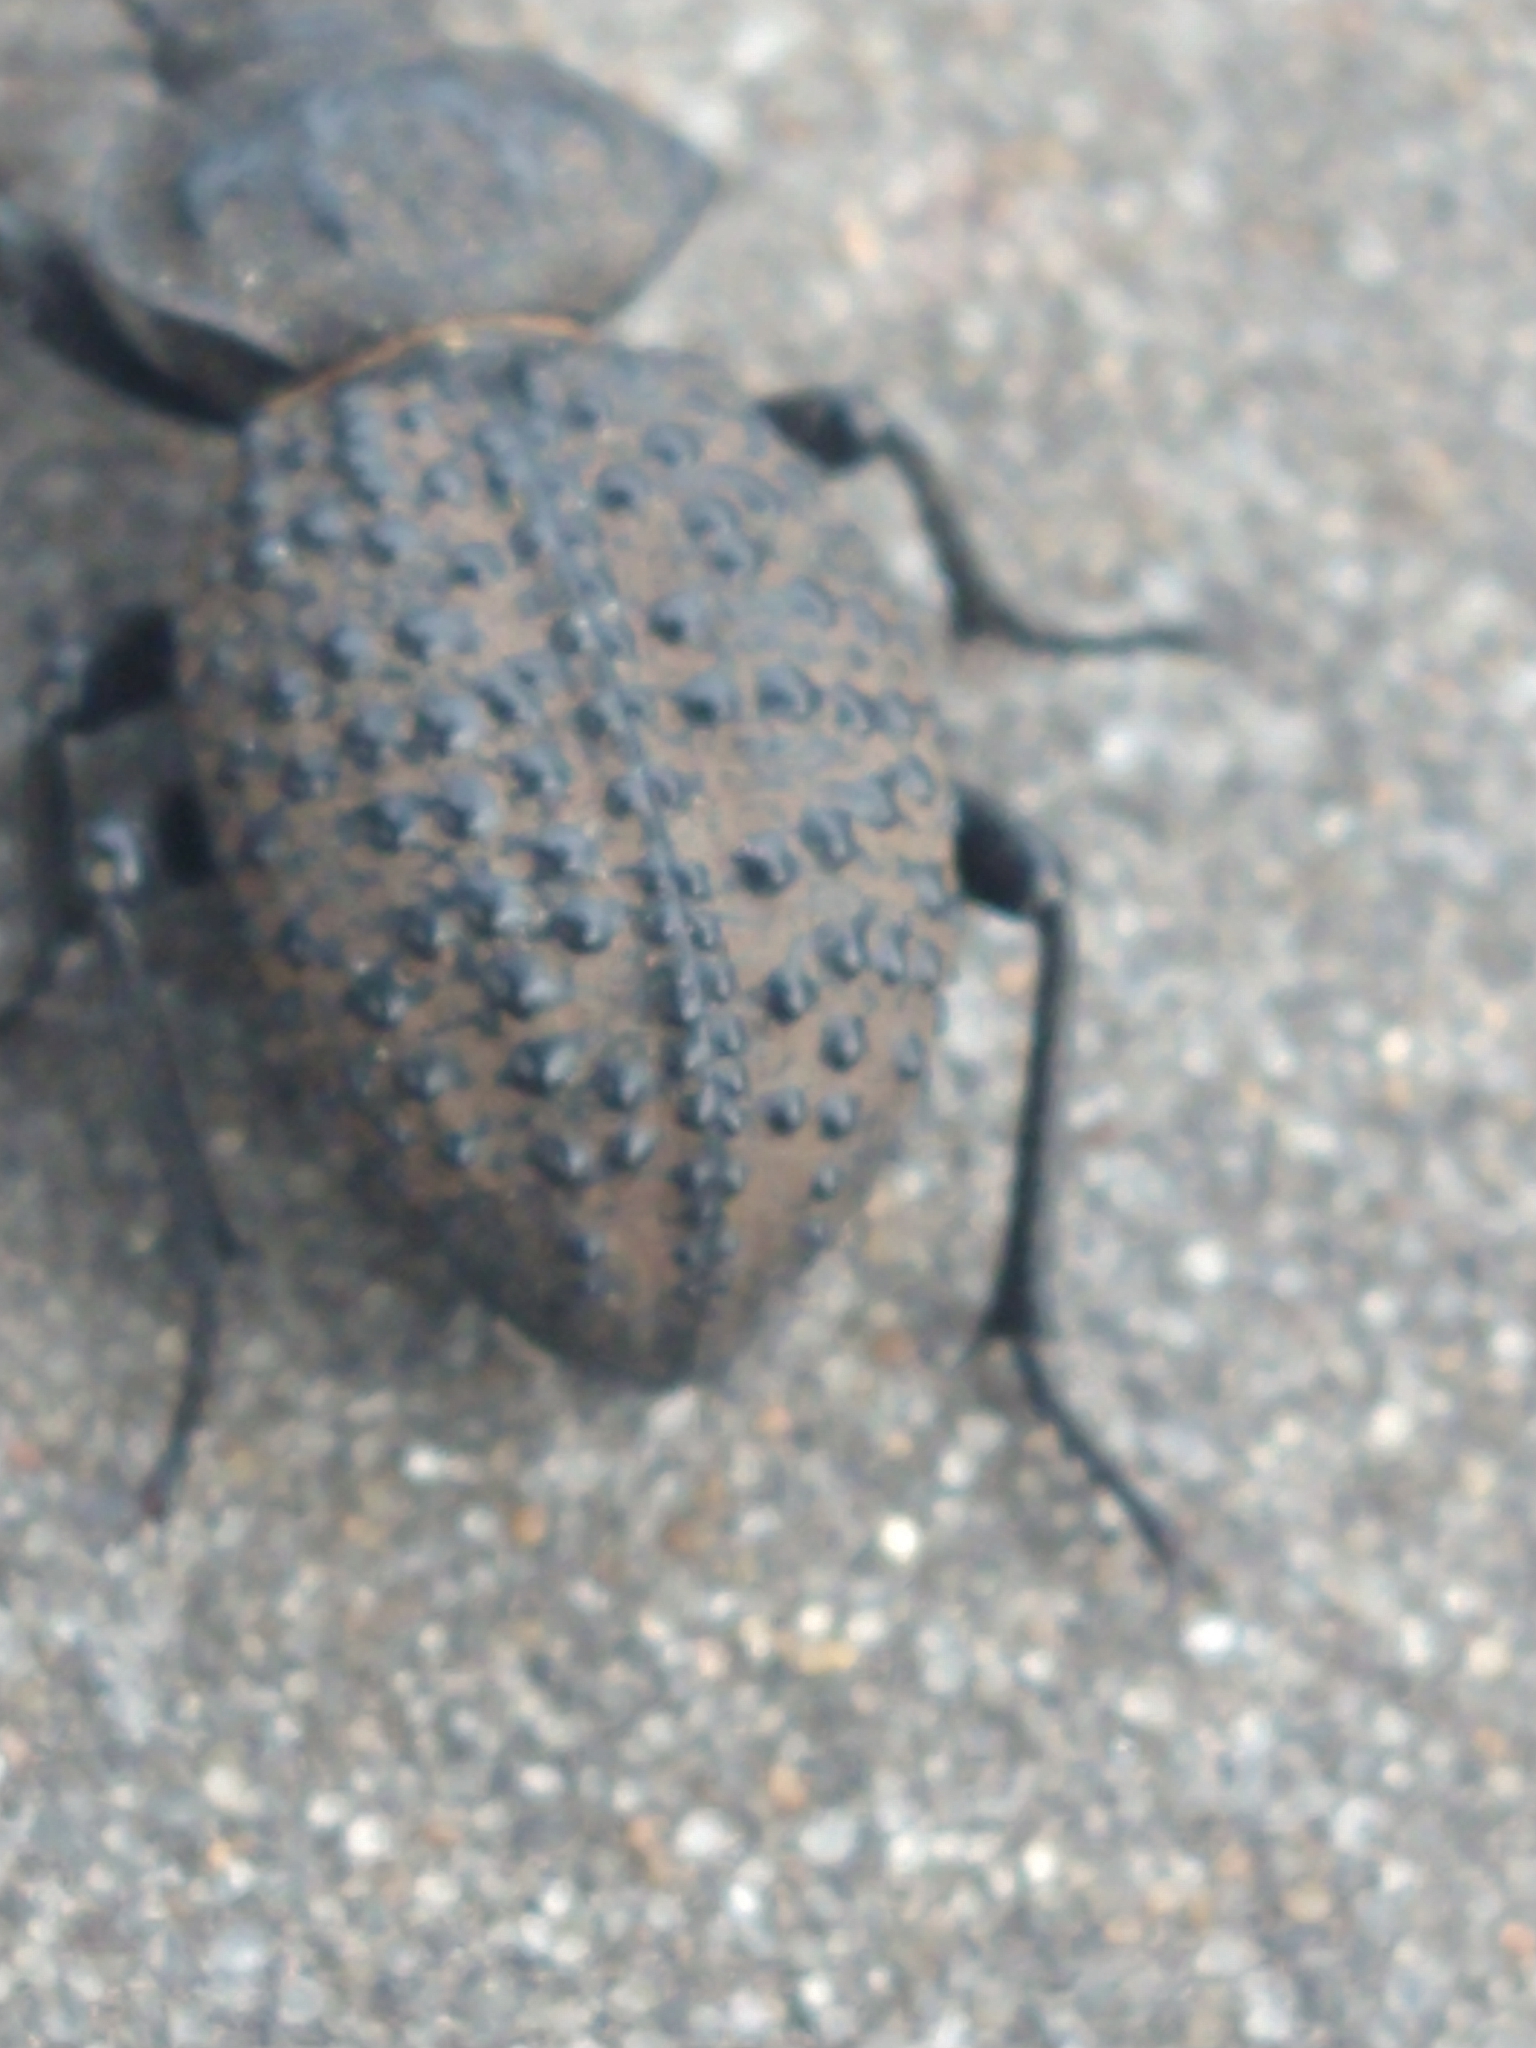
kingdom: Animalia
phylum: Arthropoda
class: Insecta
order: Coleoptera
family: Tenebrionidae
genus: Scotobius
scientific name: Scotobius pilularius
